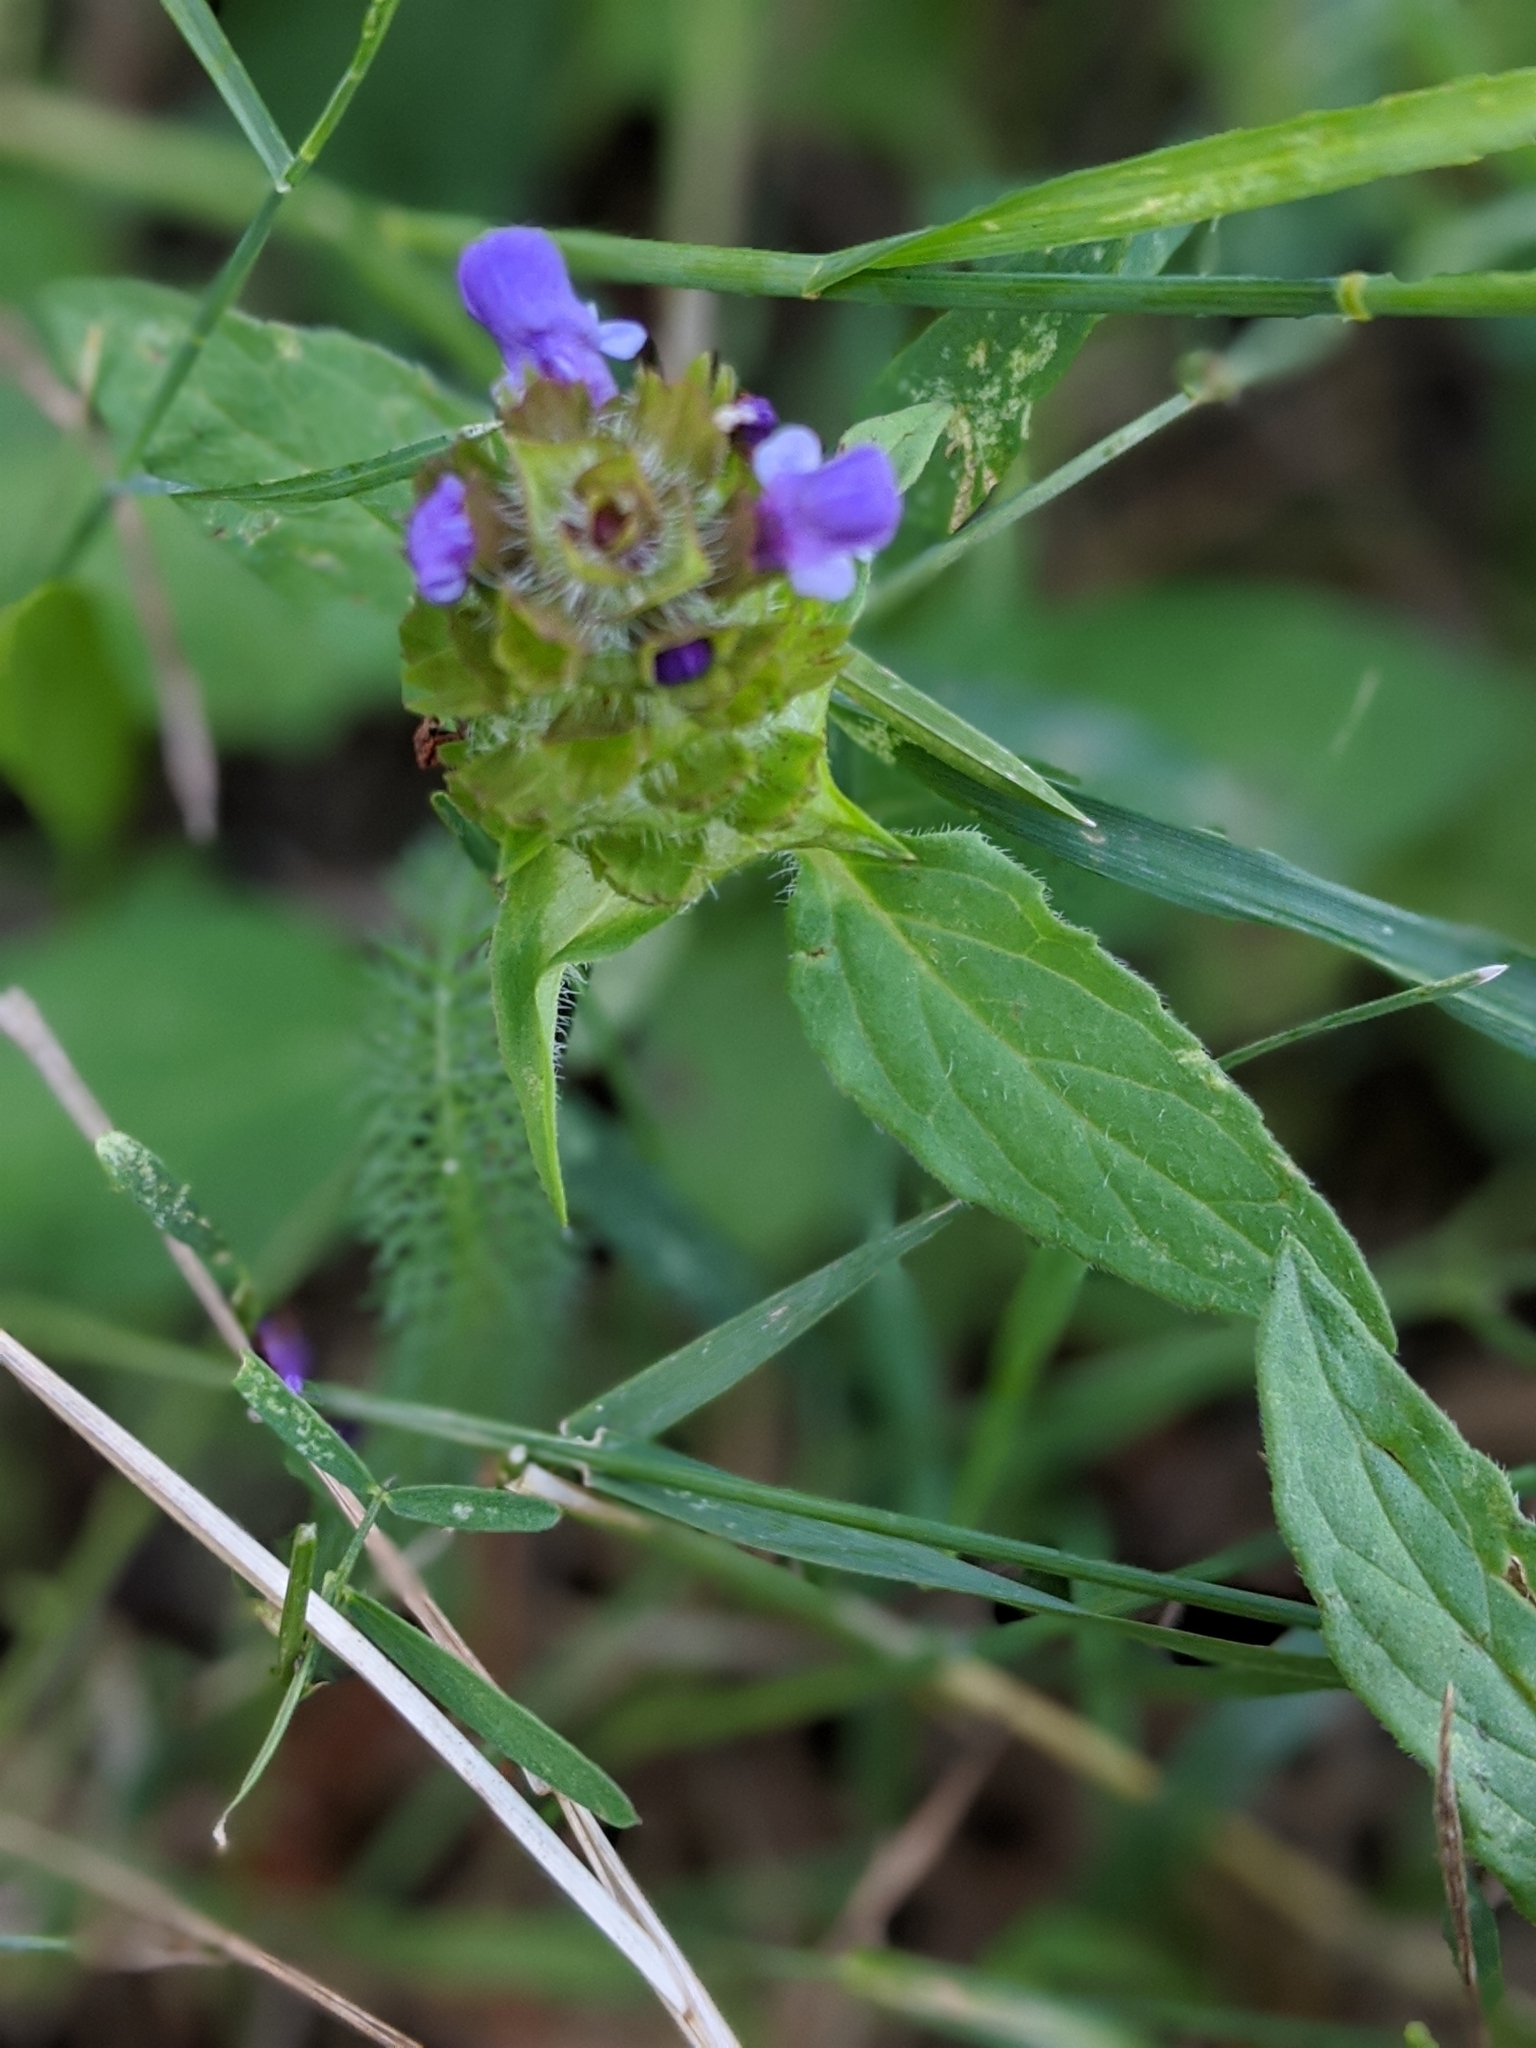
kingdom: Plantae
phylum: Tracheophyta
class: Magnoliopsida
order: Lamiales
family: Lamiaceae
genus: Prunella
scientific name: Prunella vulgaris
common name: Heal-all
